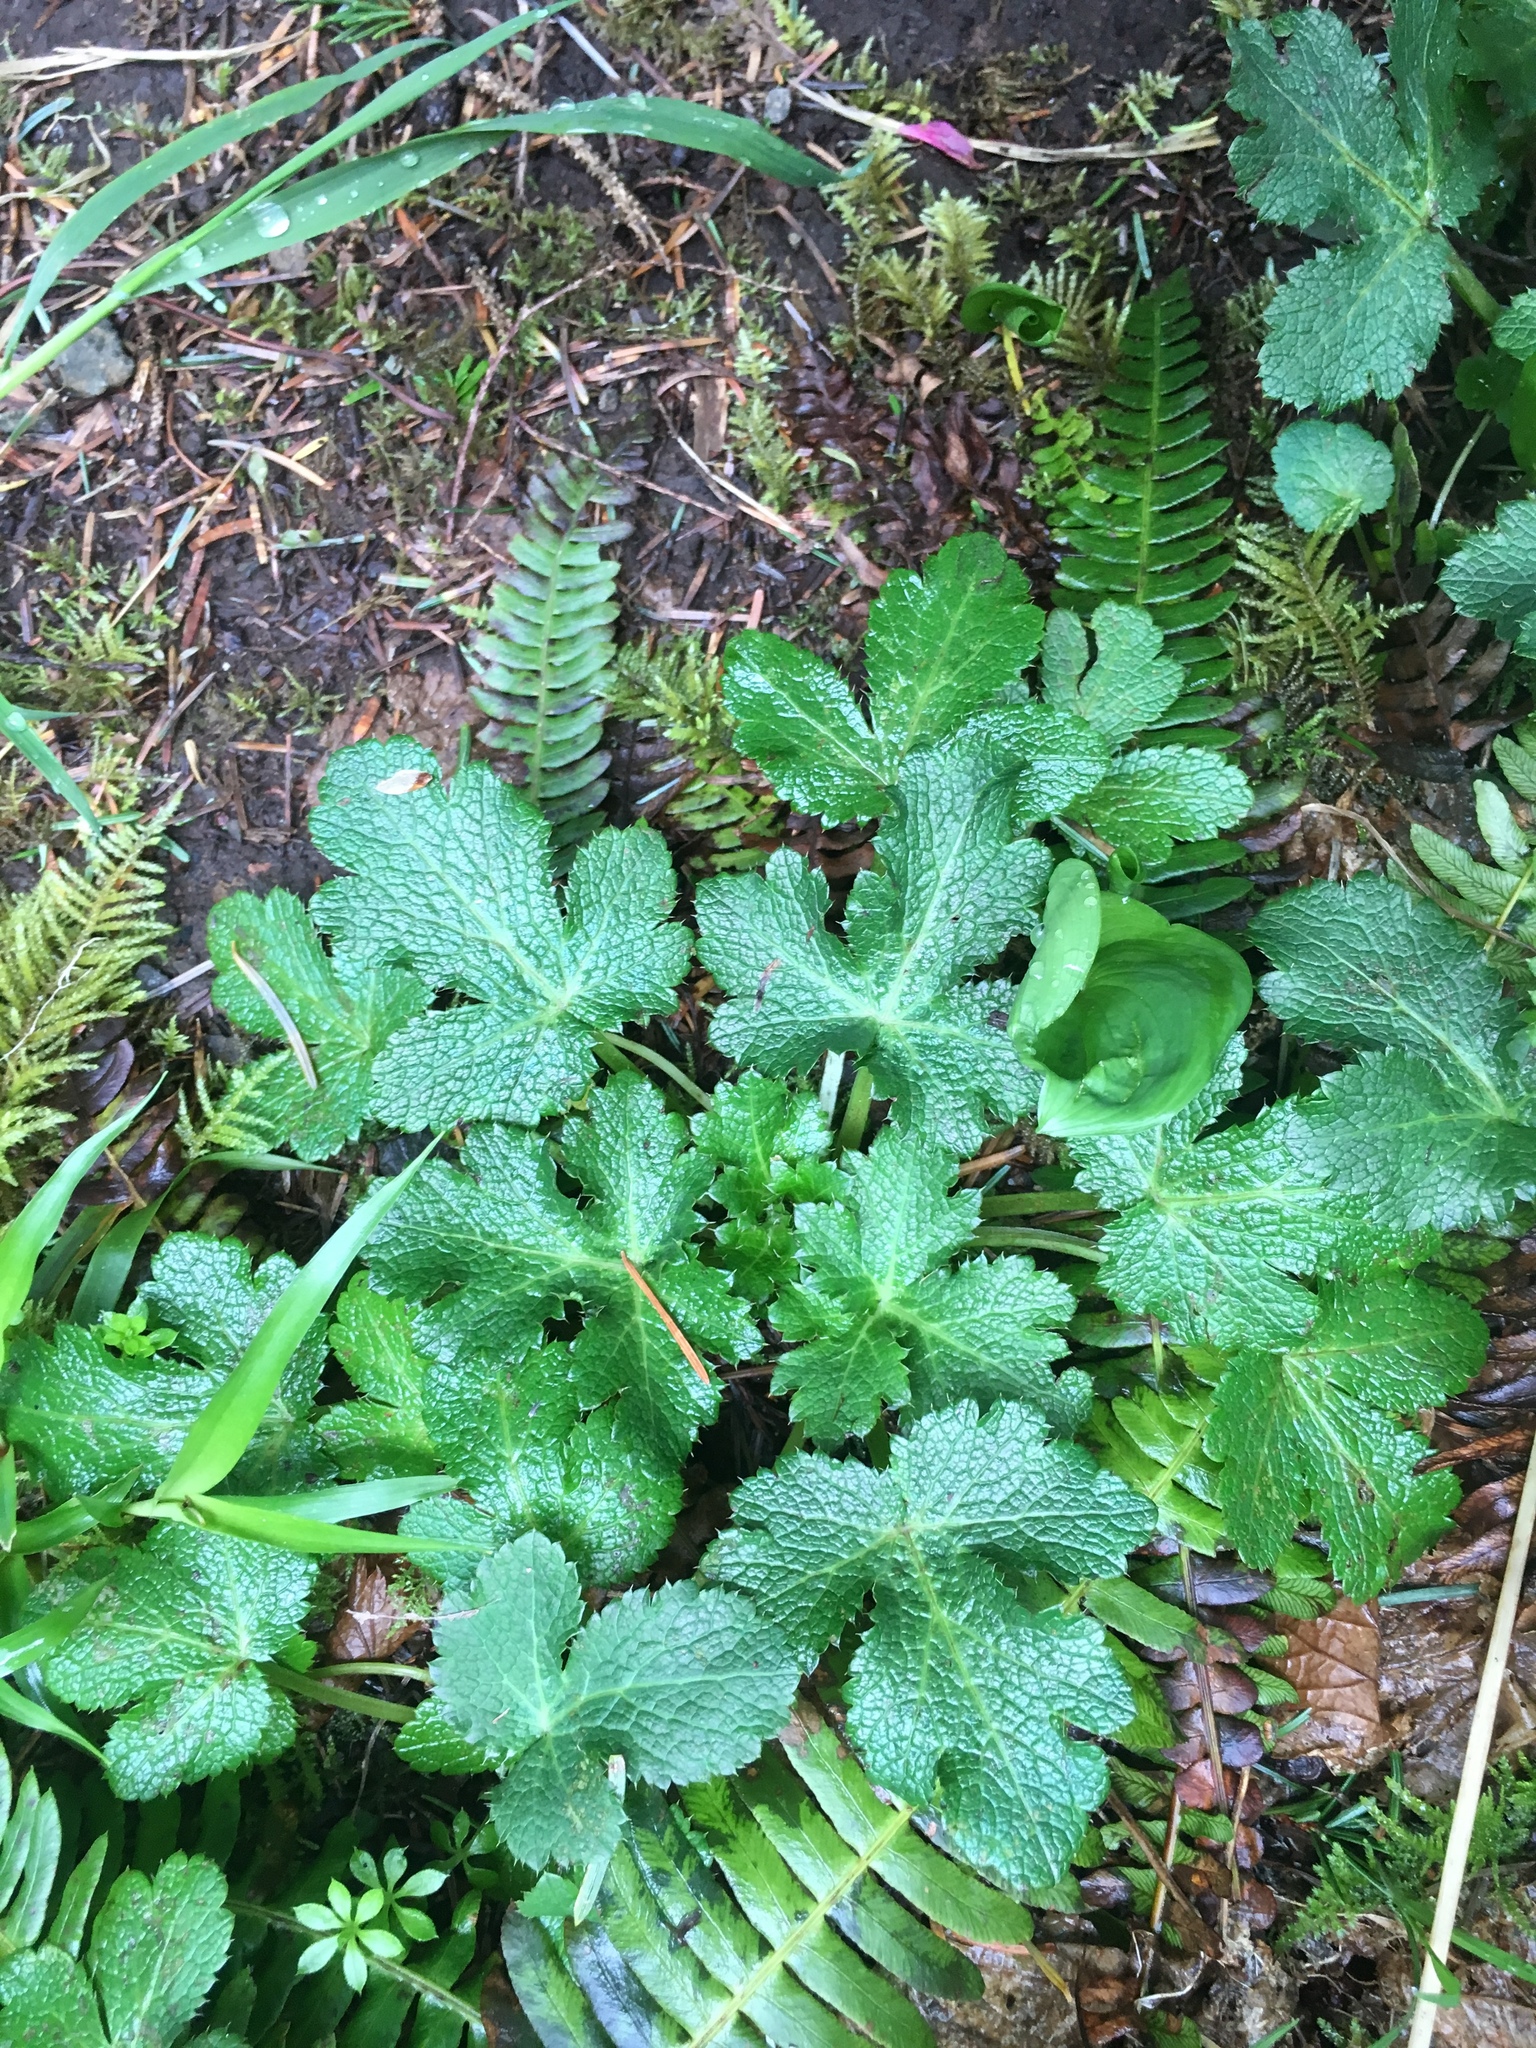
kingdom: Plantae
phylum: Tracheophyta
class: Magnoliopsida
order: Apiales
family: Apiaceae
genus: Sanicula
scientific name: Sanicula crassicaulis
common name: Western snakeroot
